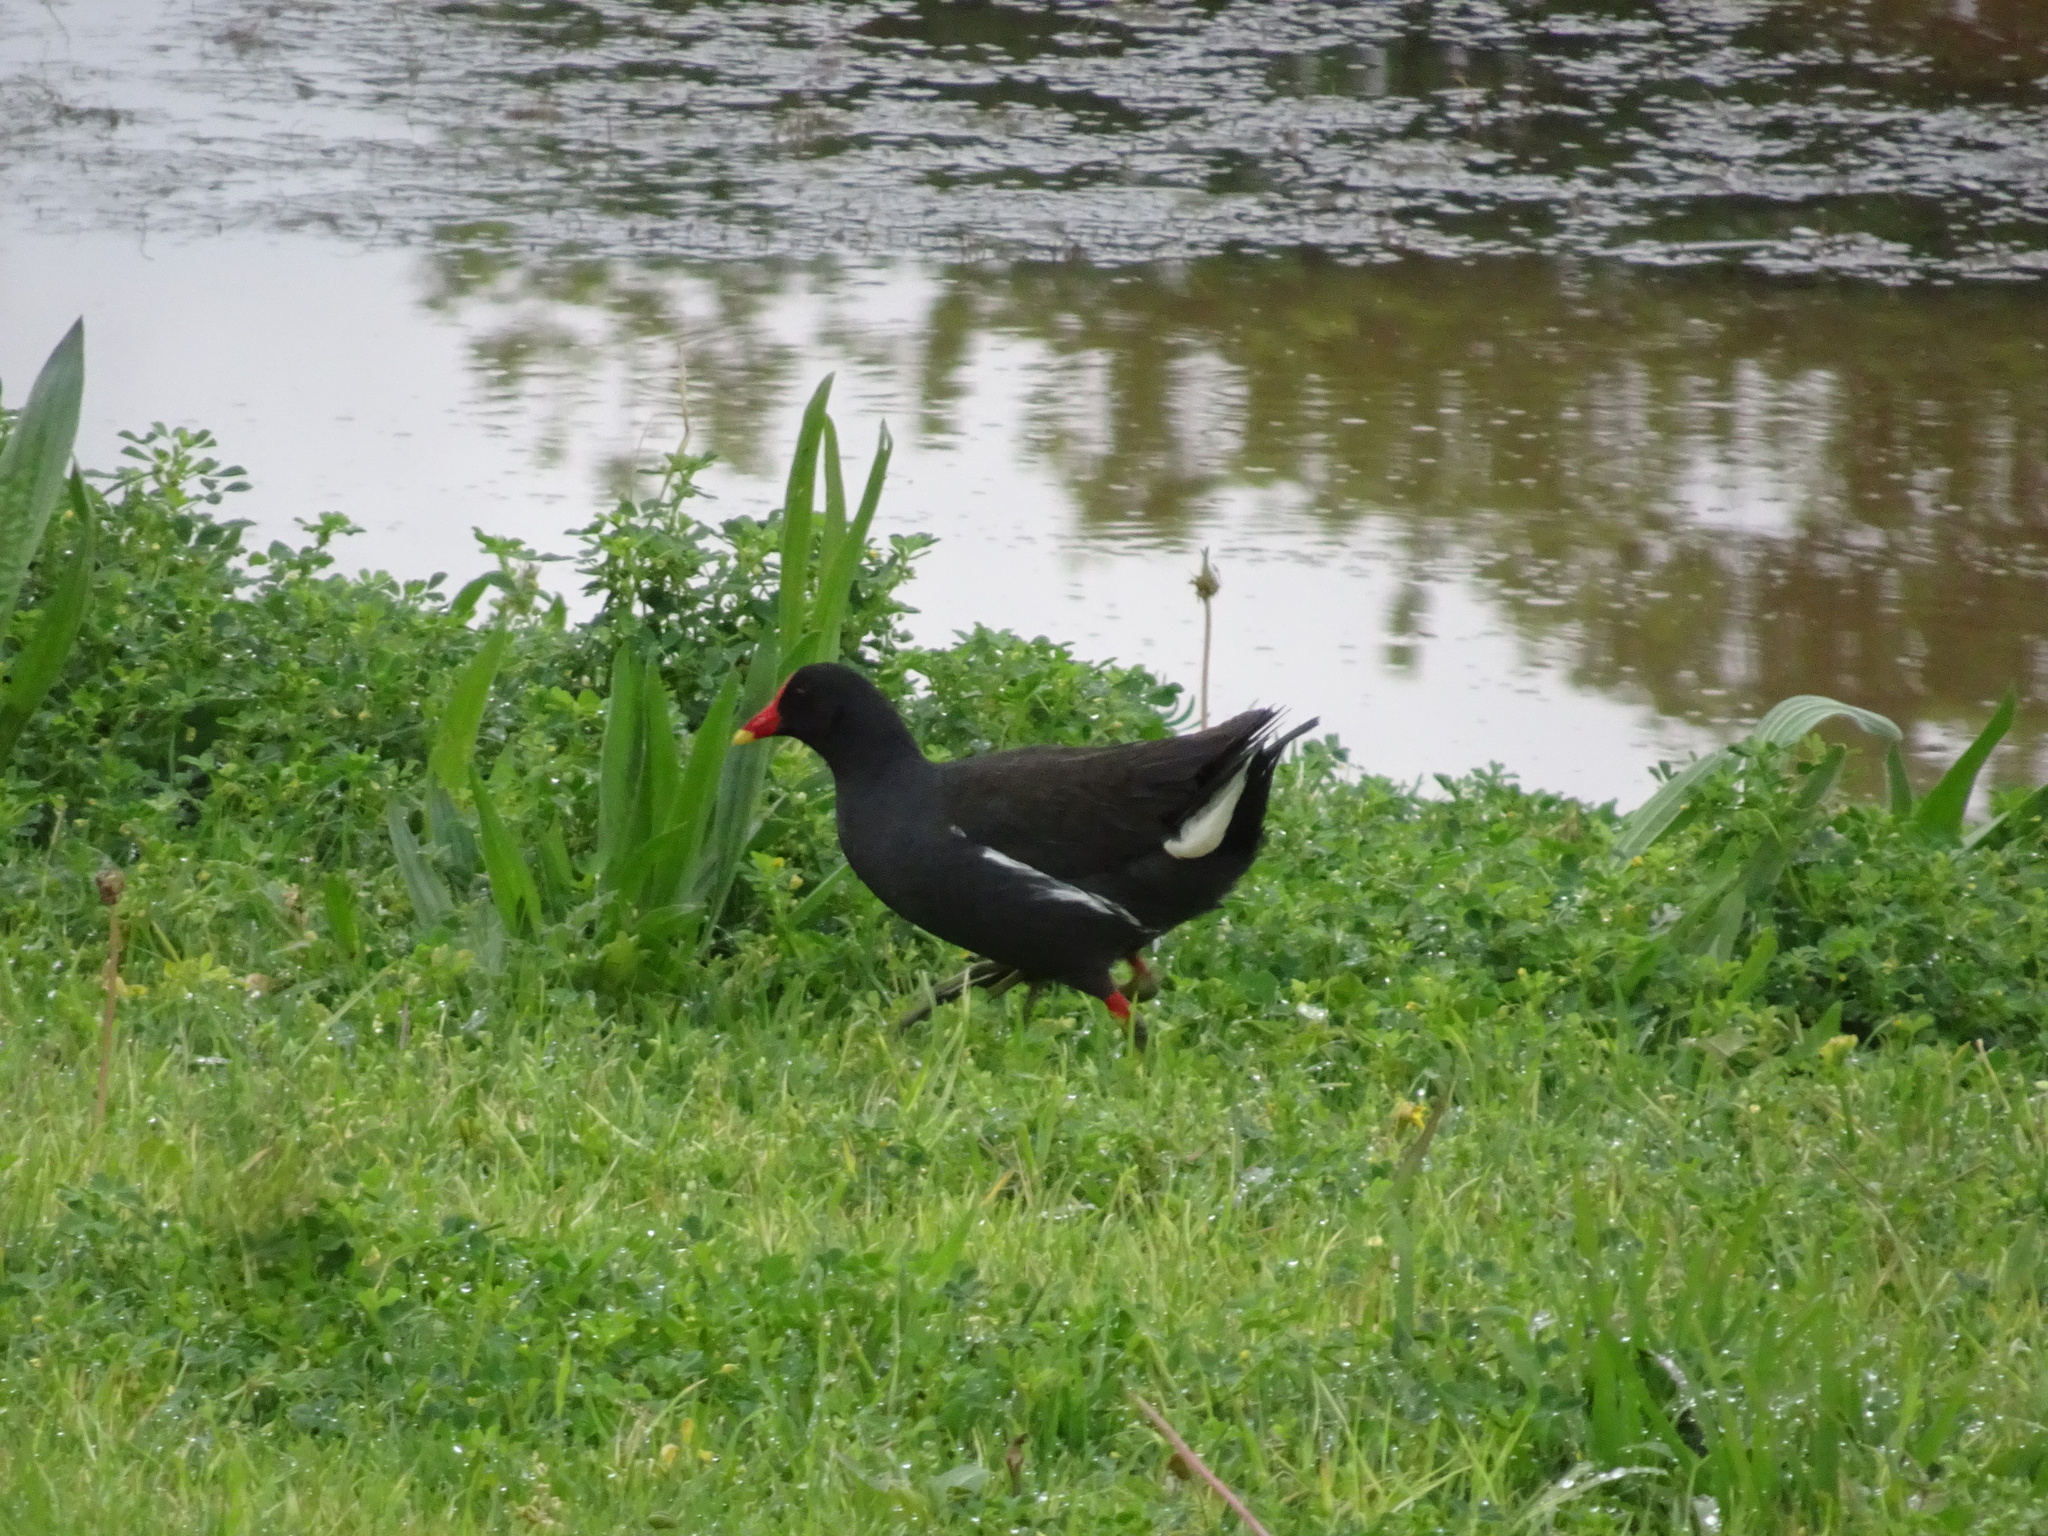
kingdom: Animalia
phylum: Chordata
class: Aves
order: Gruiformes
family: Rallidae
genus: Gallinula
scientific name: Gallinula chloropus
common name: Common moorhen
